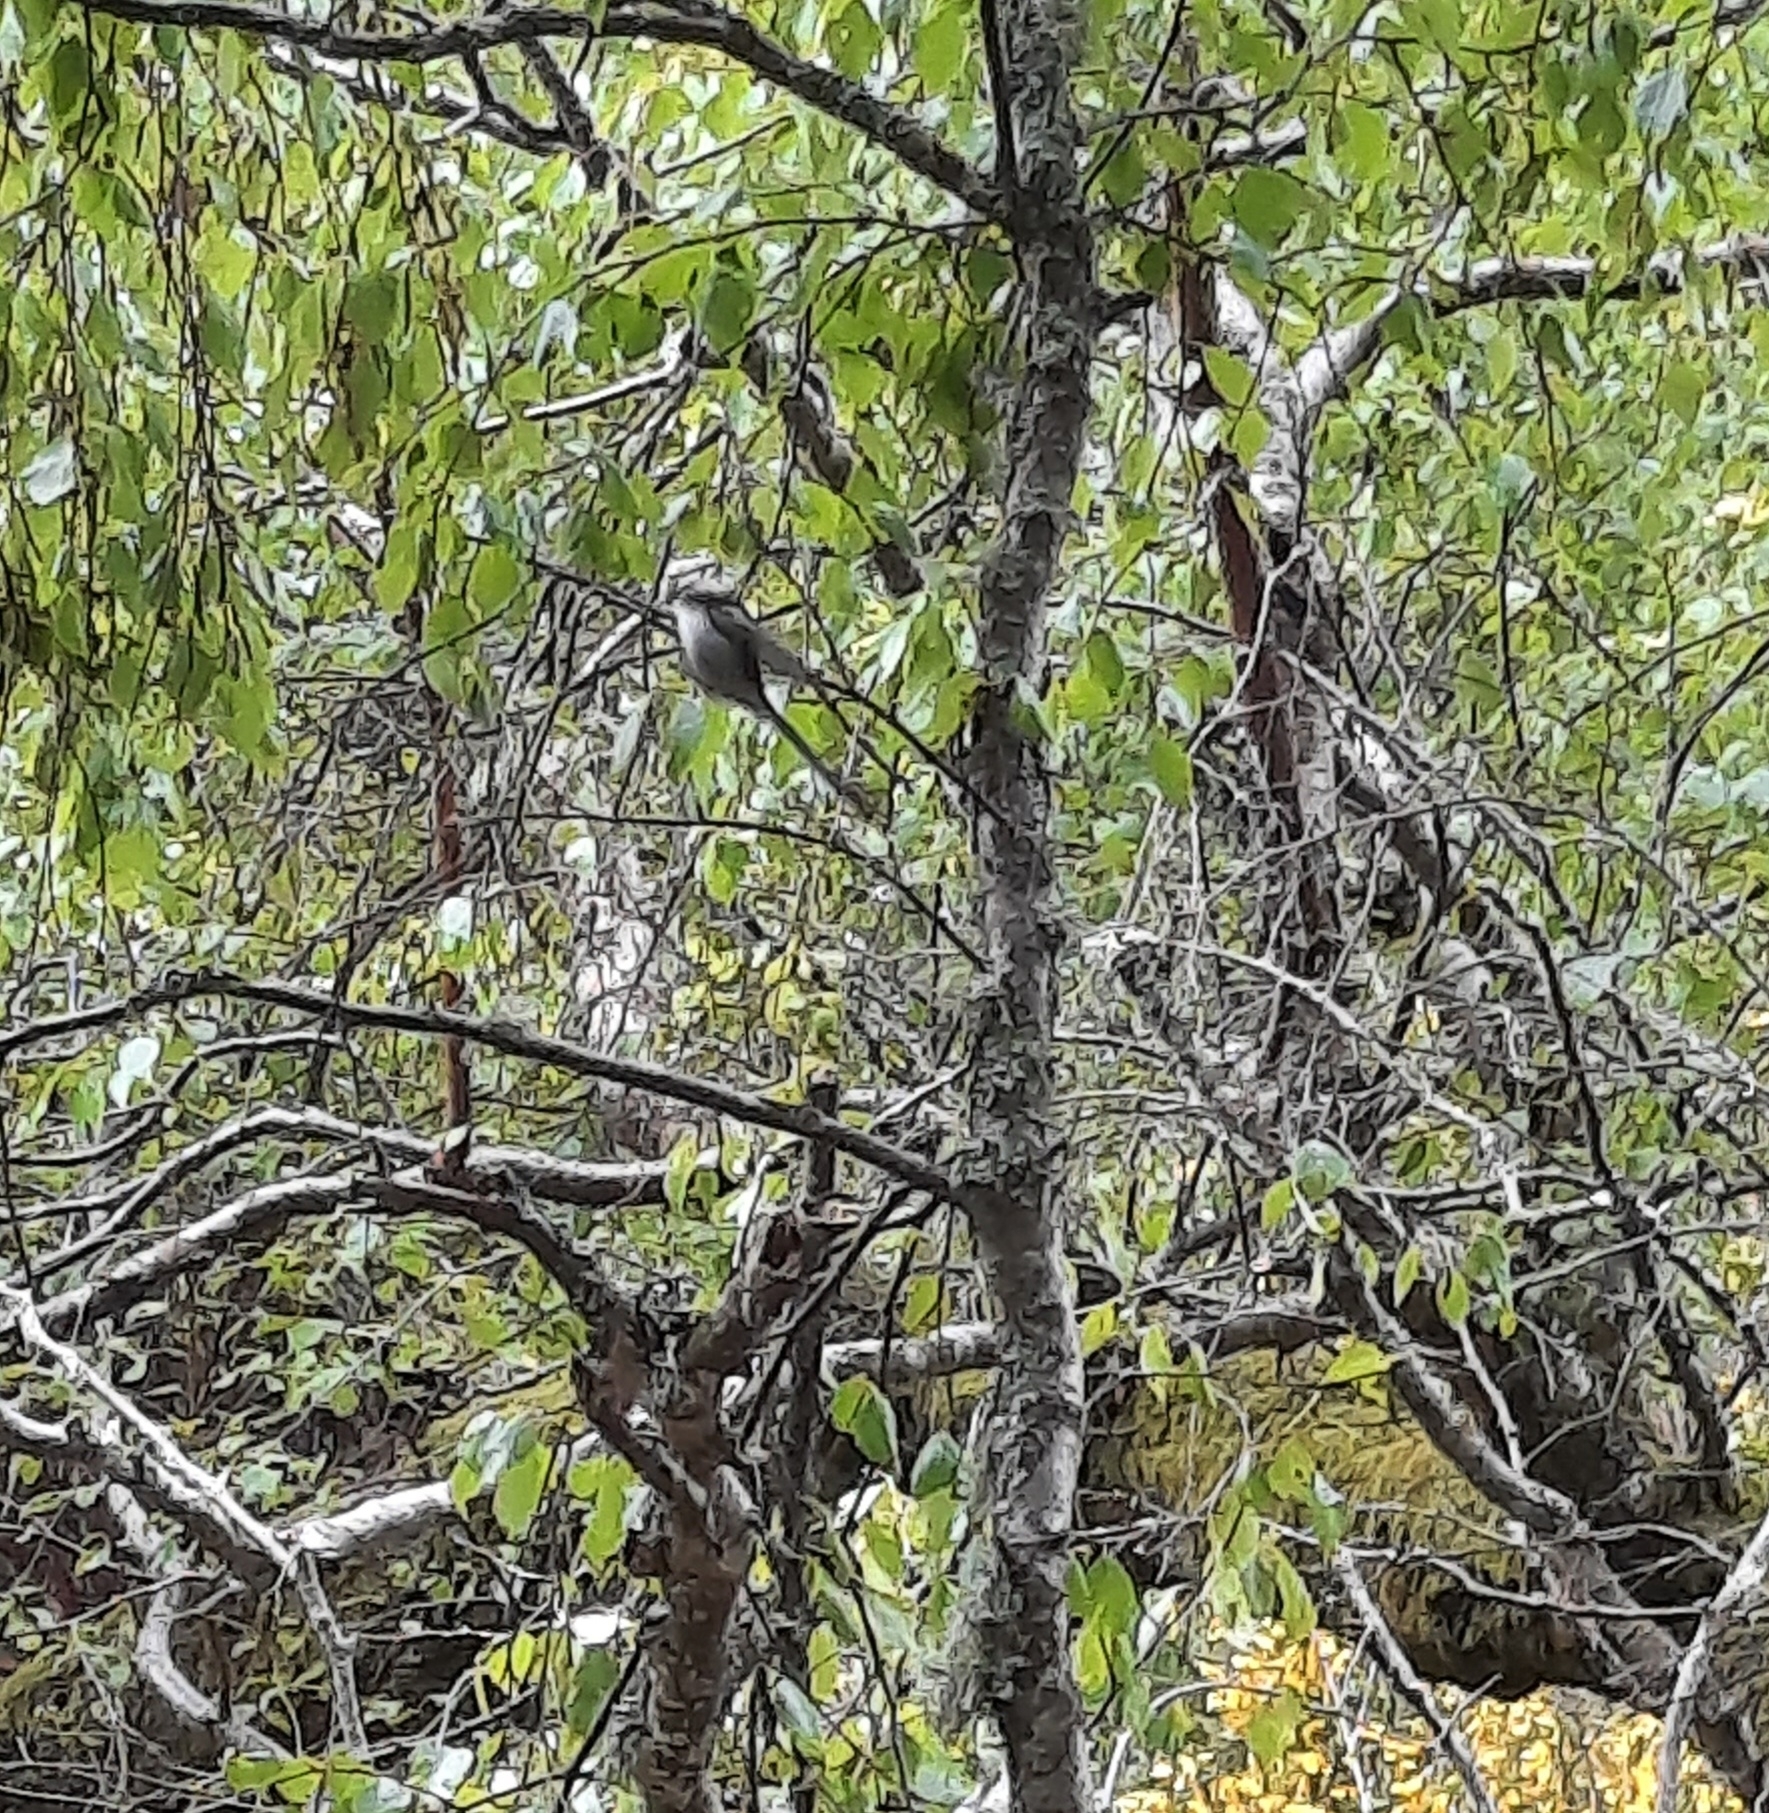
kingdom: Animalia
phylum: Chordata
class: Aves
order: Passeriformes
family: Aegithalidae
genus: Aegithalos
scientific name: Aegithalos caudatus
